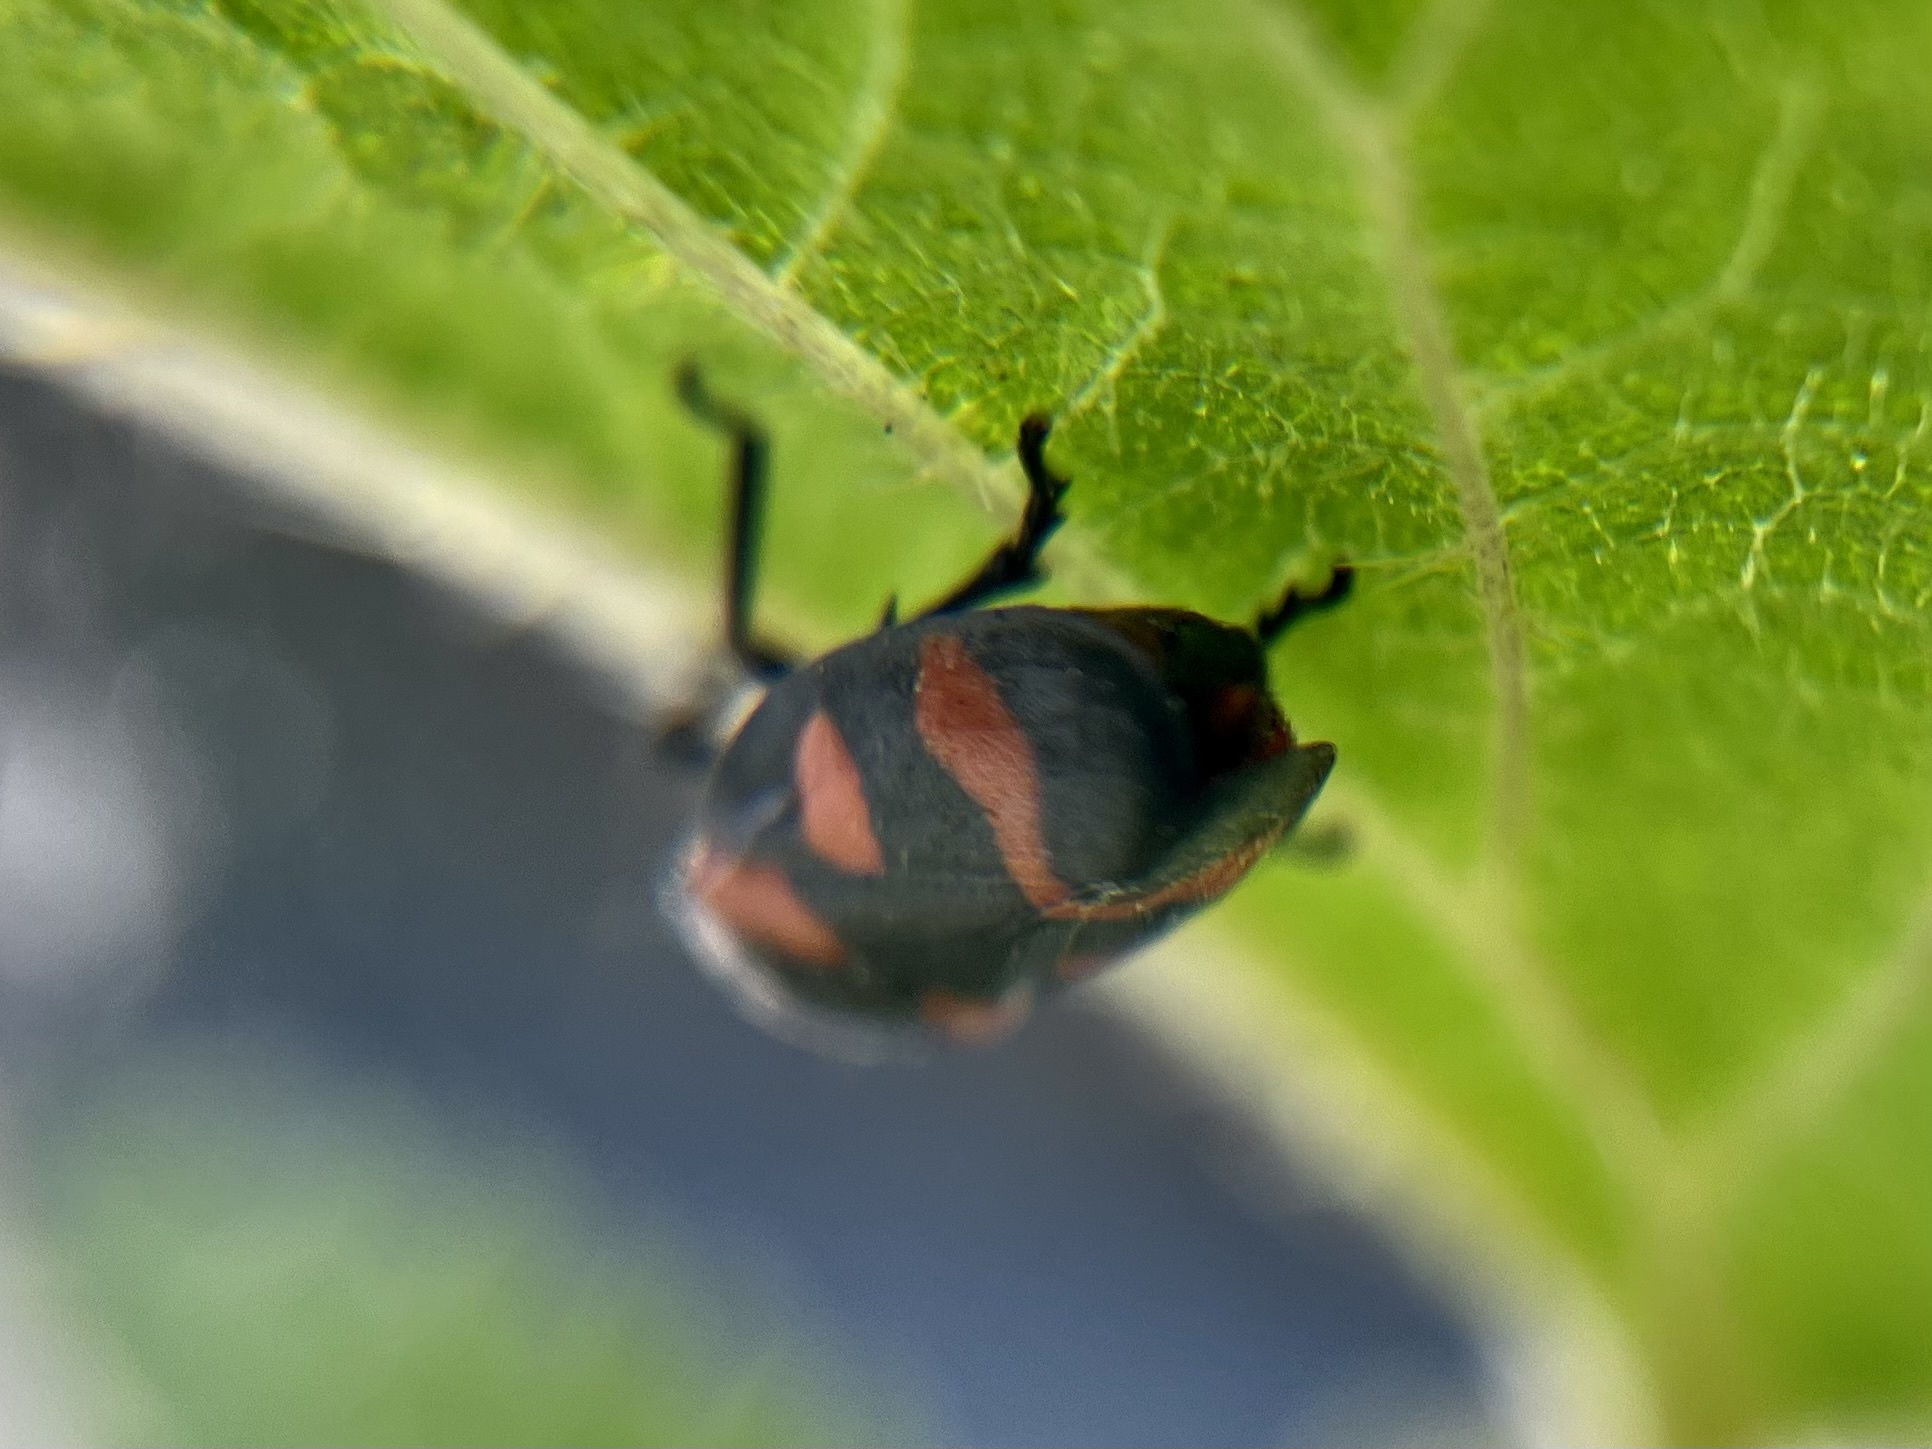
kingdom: Animalia
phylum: Arthropoda
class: Insecta
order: Hemiptera
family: Cercopidae
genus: Cercopis
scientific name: Cercopis sanguinolenta
